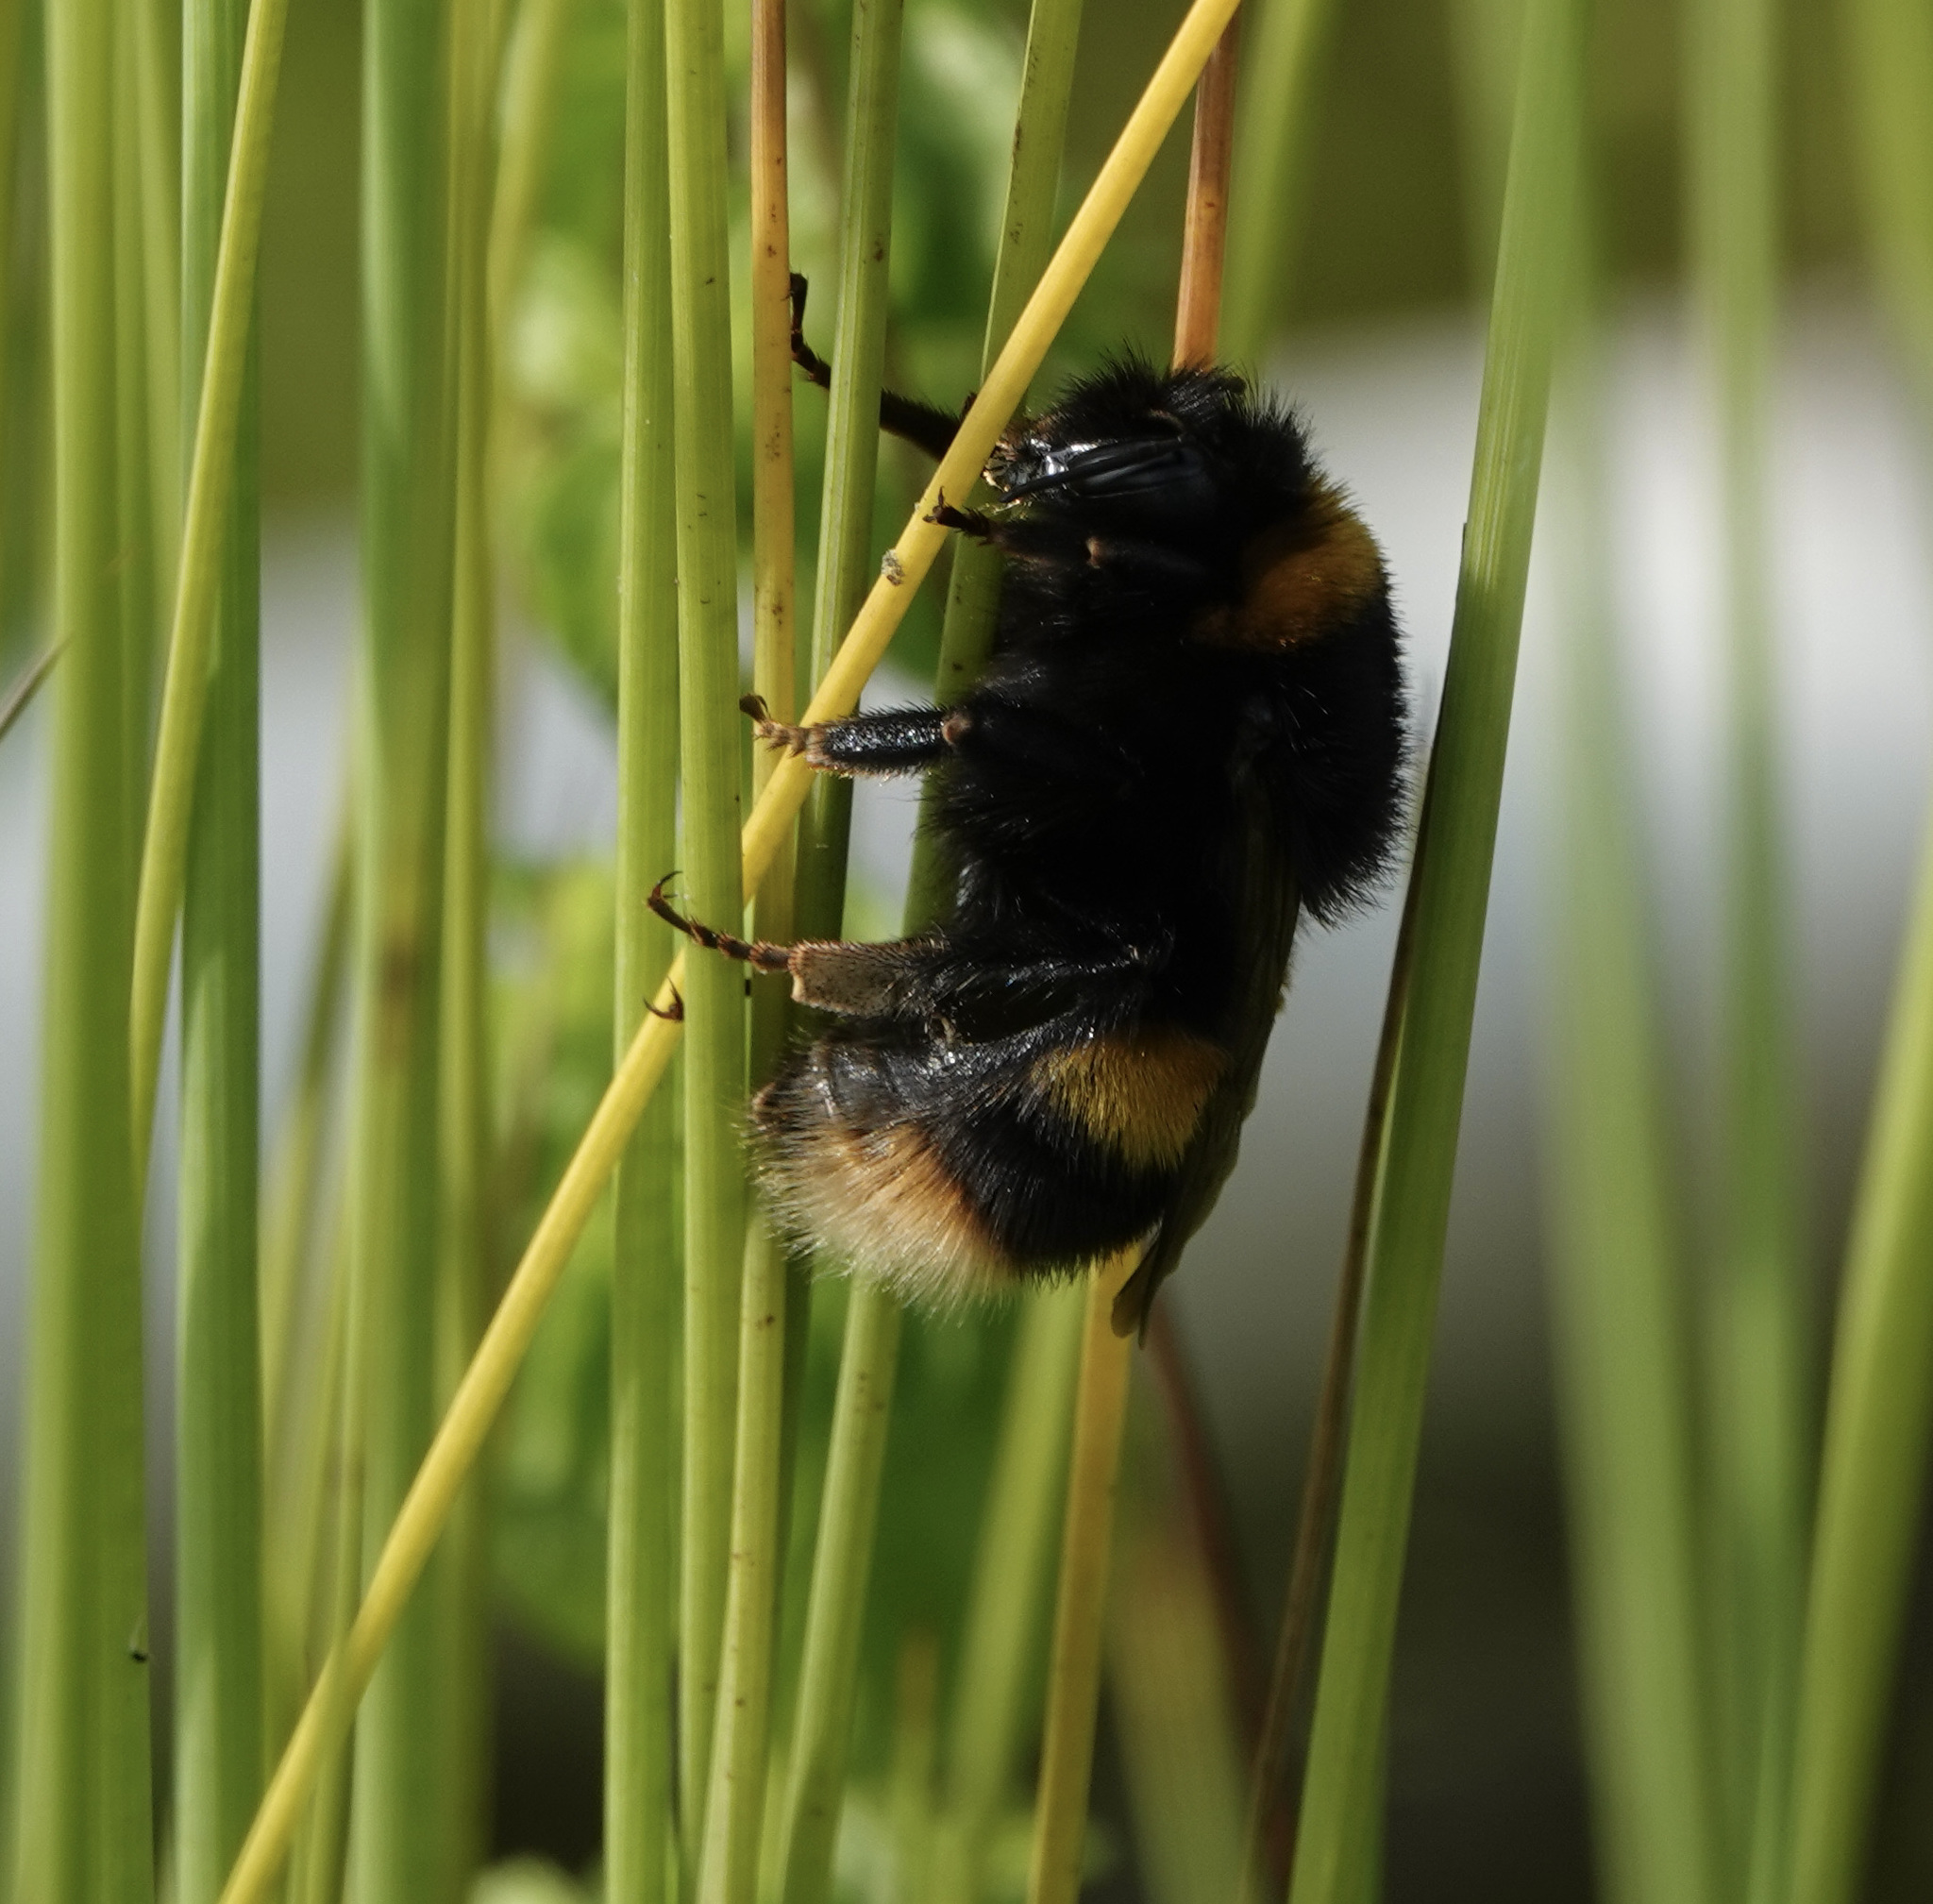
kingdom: Animalia
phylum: Arthropoda
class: Insecta
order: Hymenoptera
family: Apidae
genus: Bombus
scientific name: Bombus terrestris
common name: Buff-tailed bumblebee
